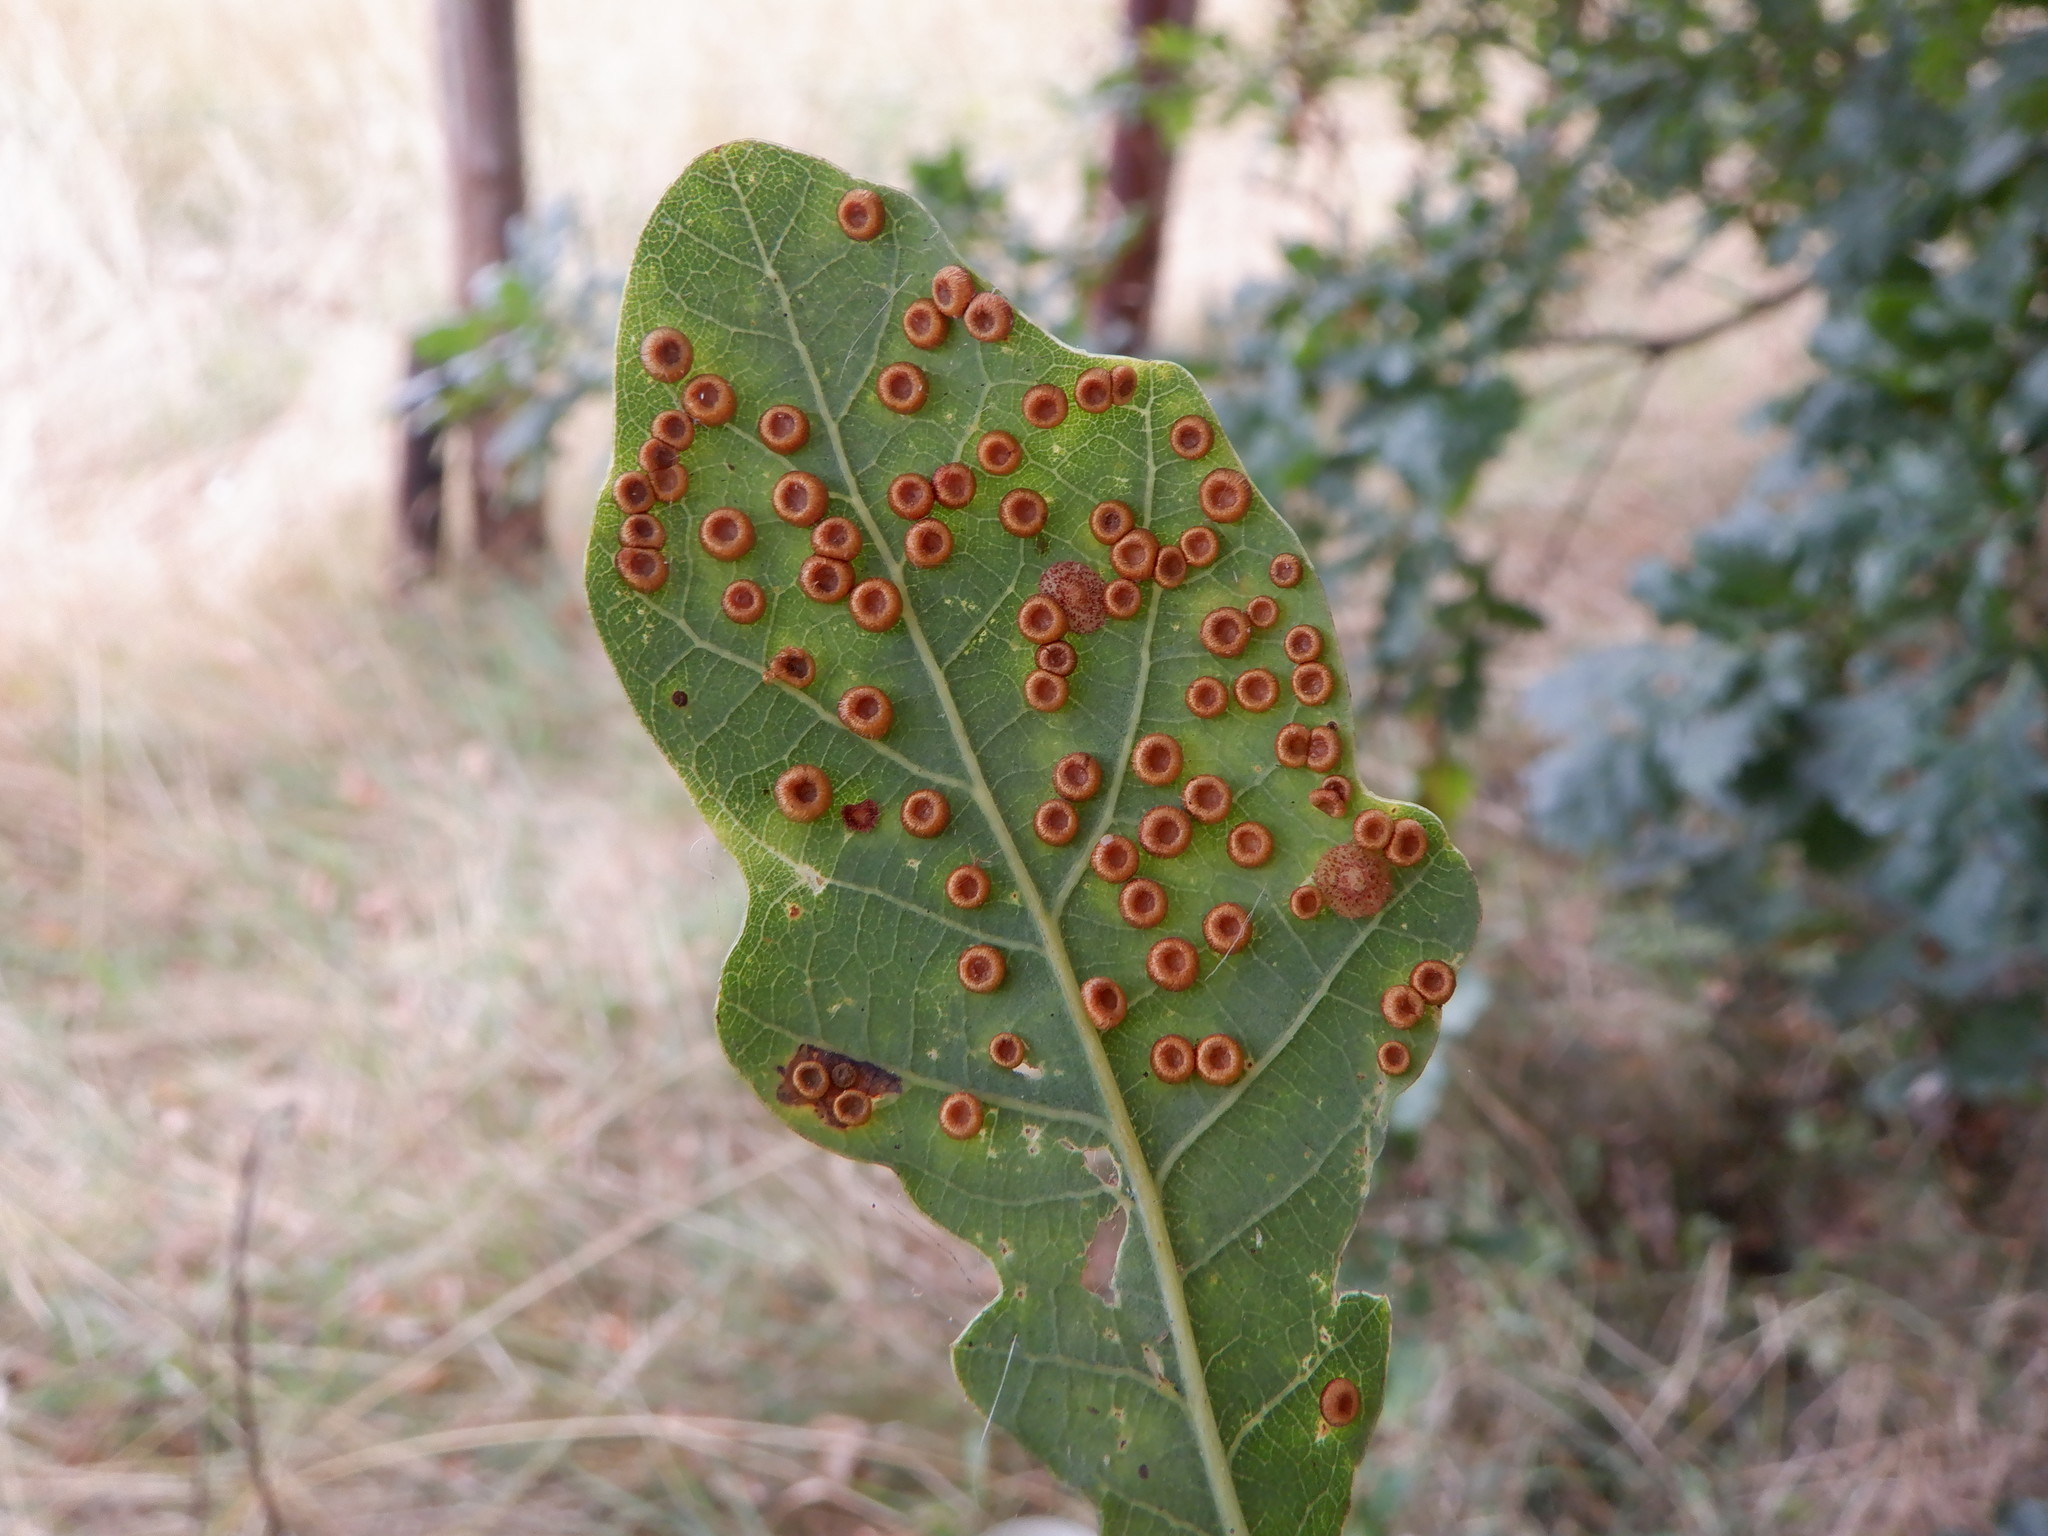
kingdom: Animalia
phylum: Arthropoda
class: Insecta
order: Hymenoptera
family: Cynipidae
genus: Neuroterus
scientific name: Neuroterus numismalis
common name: Silk-button spangle gall
